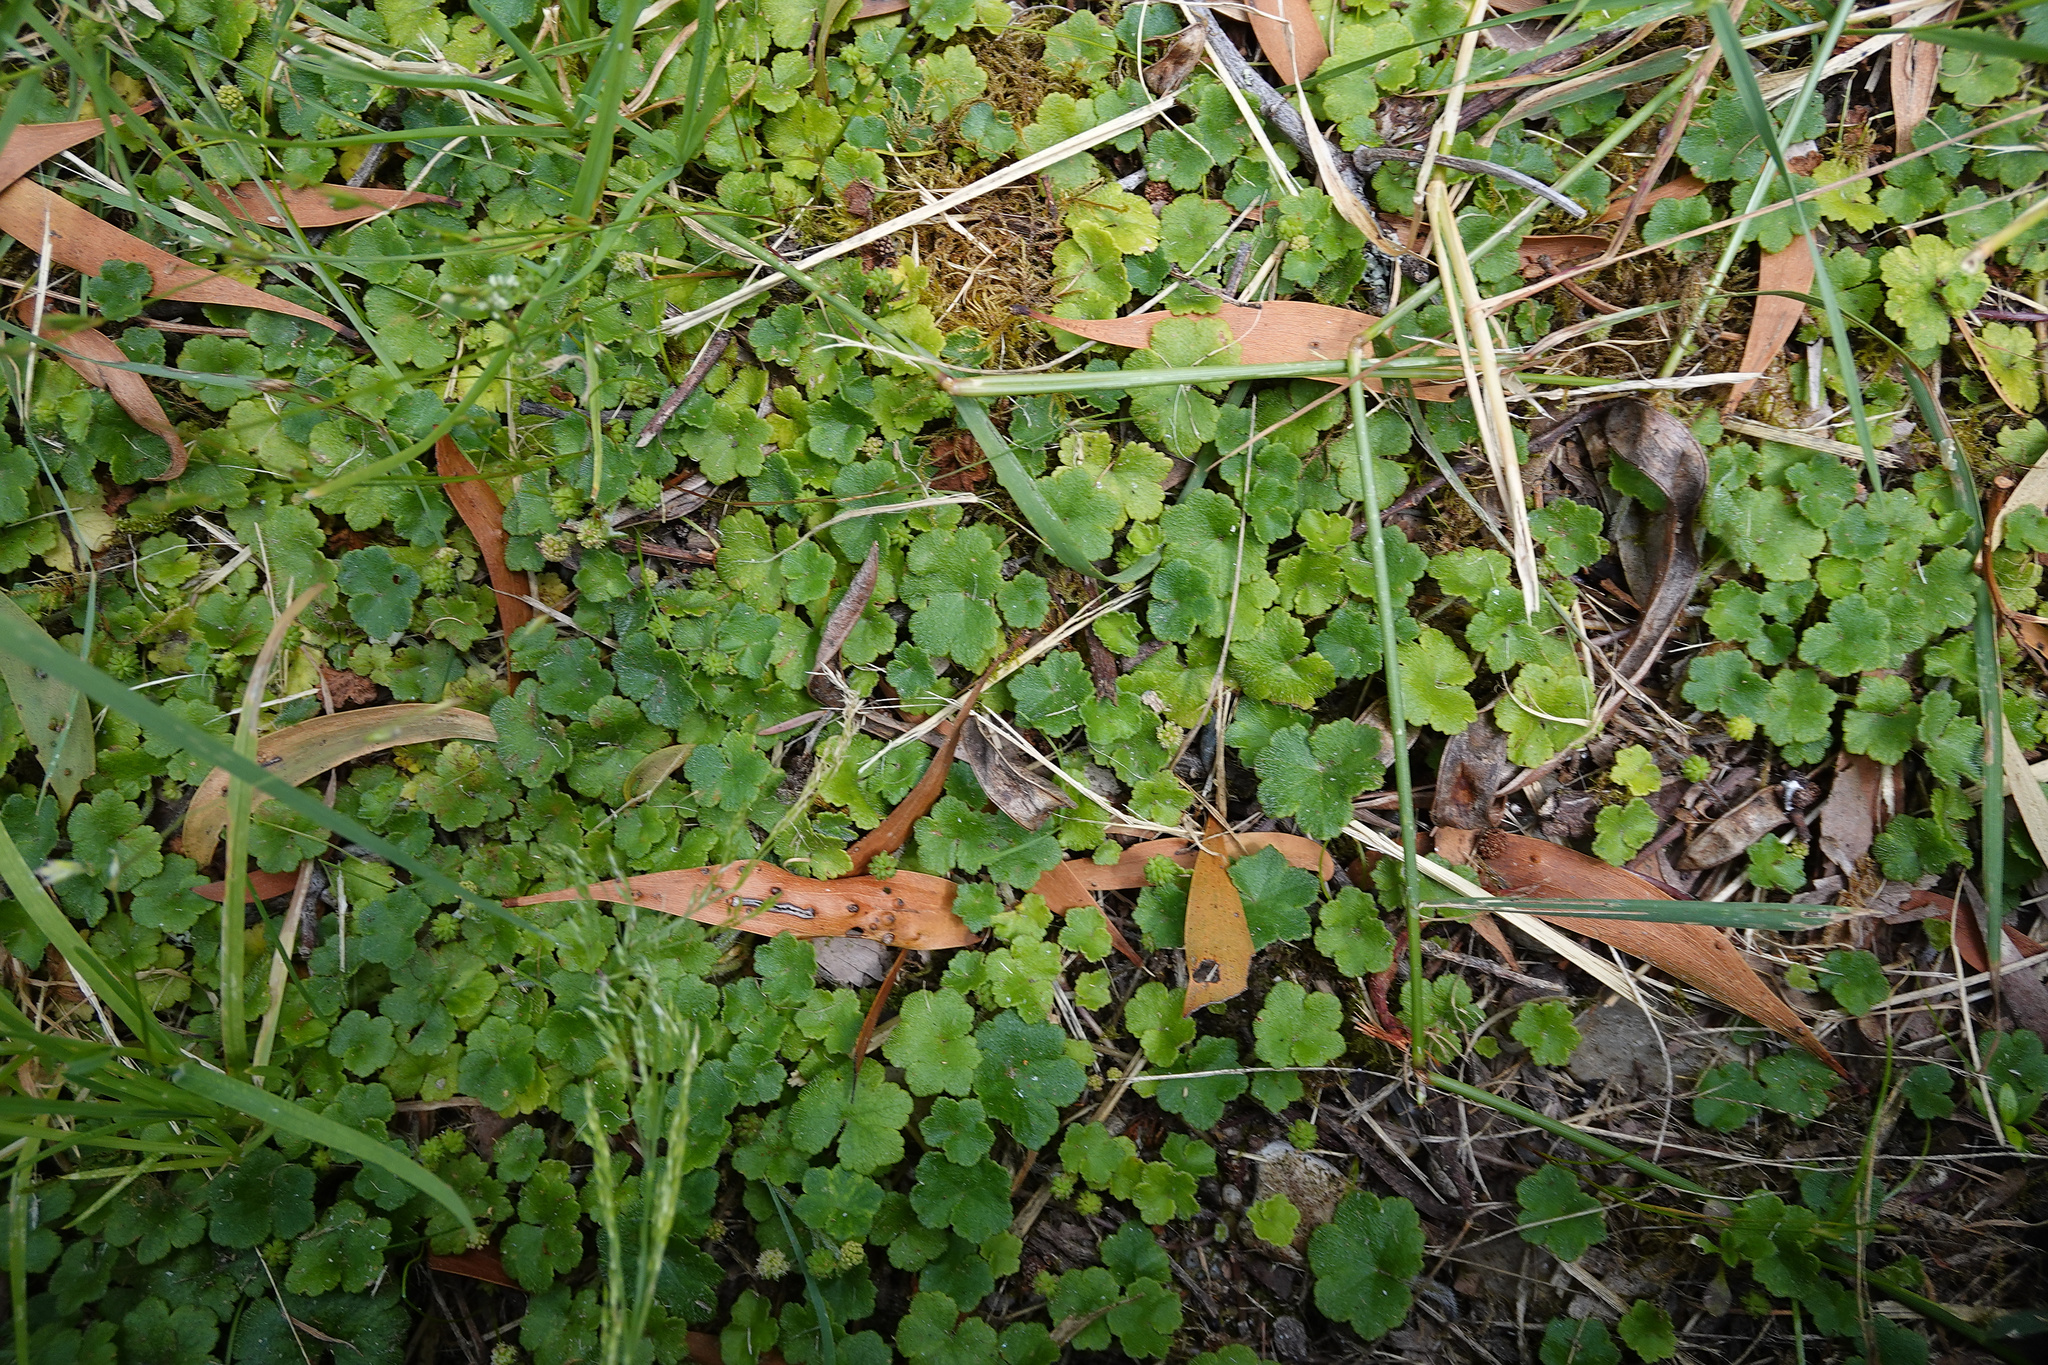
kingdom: Plantae
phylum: Tracheophyta
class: Magnoliopsida
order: Apiales
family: Araliaceae
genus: Hydrocotyle
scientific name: Hydrocotyle hirta
